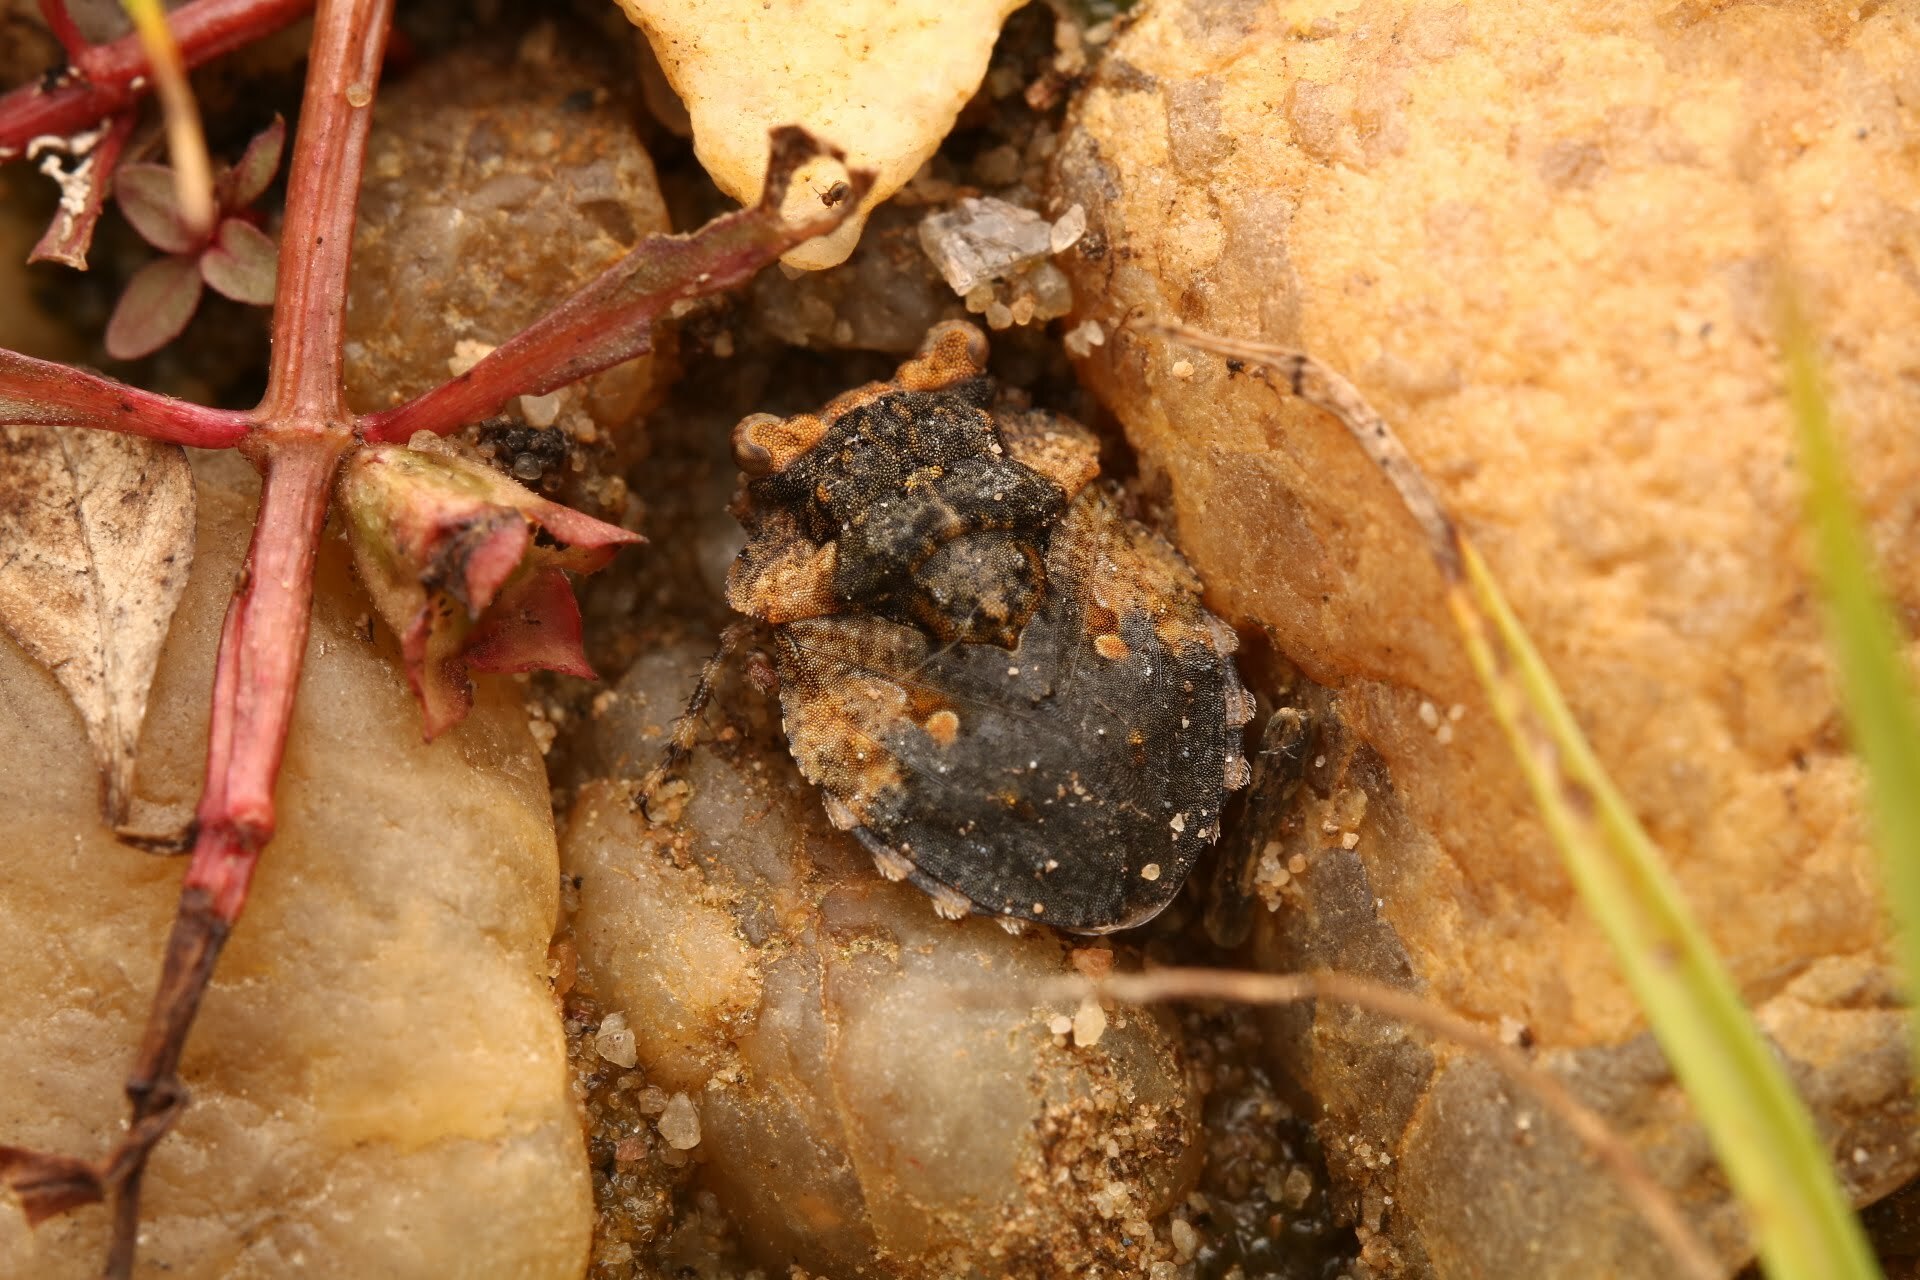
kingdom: Animalia
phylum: Arthropoda
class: Insecta
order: Hemiptera
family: Gelastocoridae
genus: Gelastocoris
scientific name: Gelastocoris oculatus
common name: Toad bug
